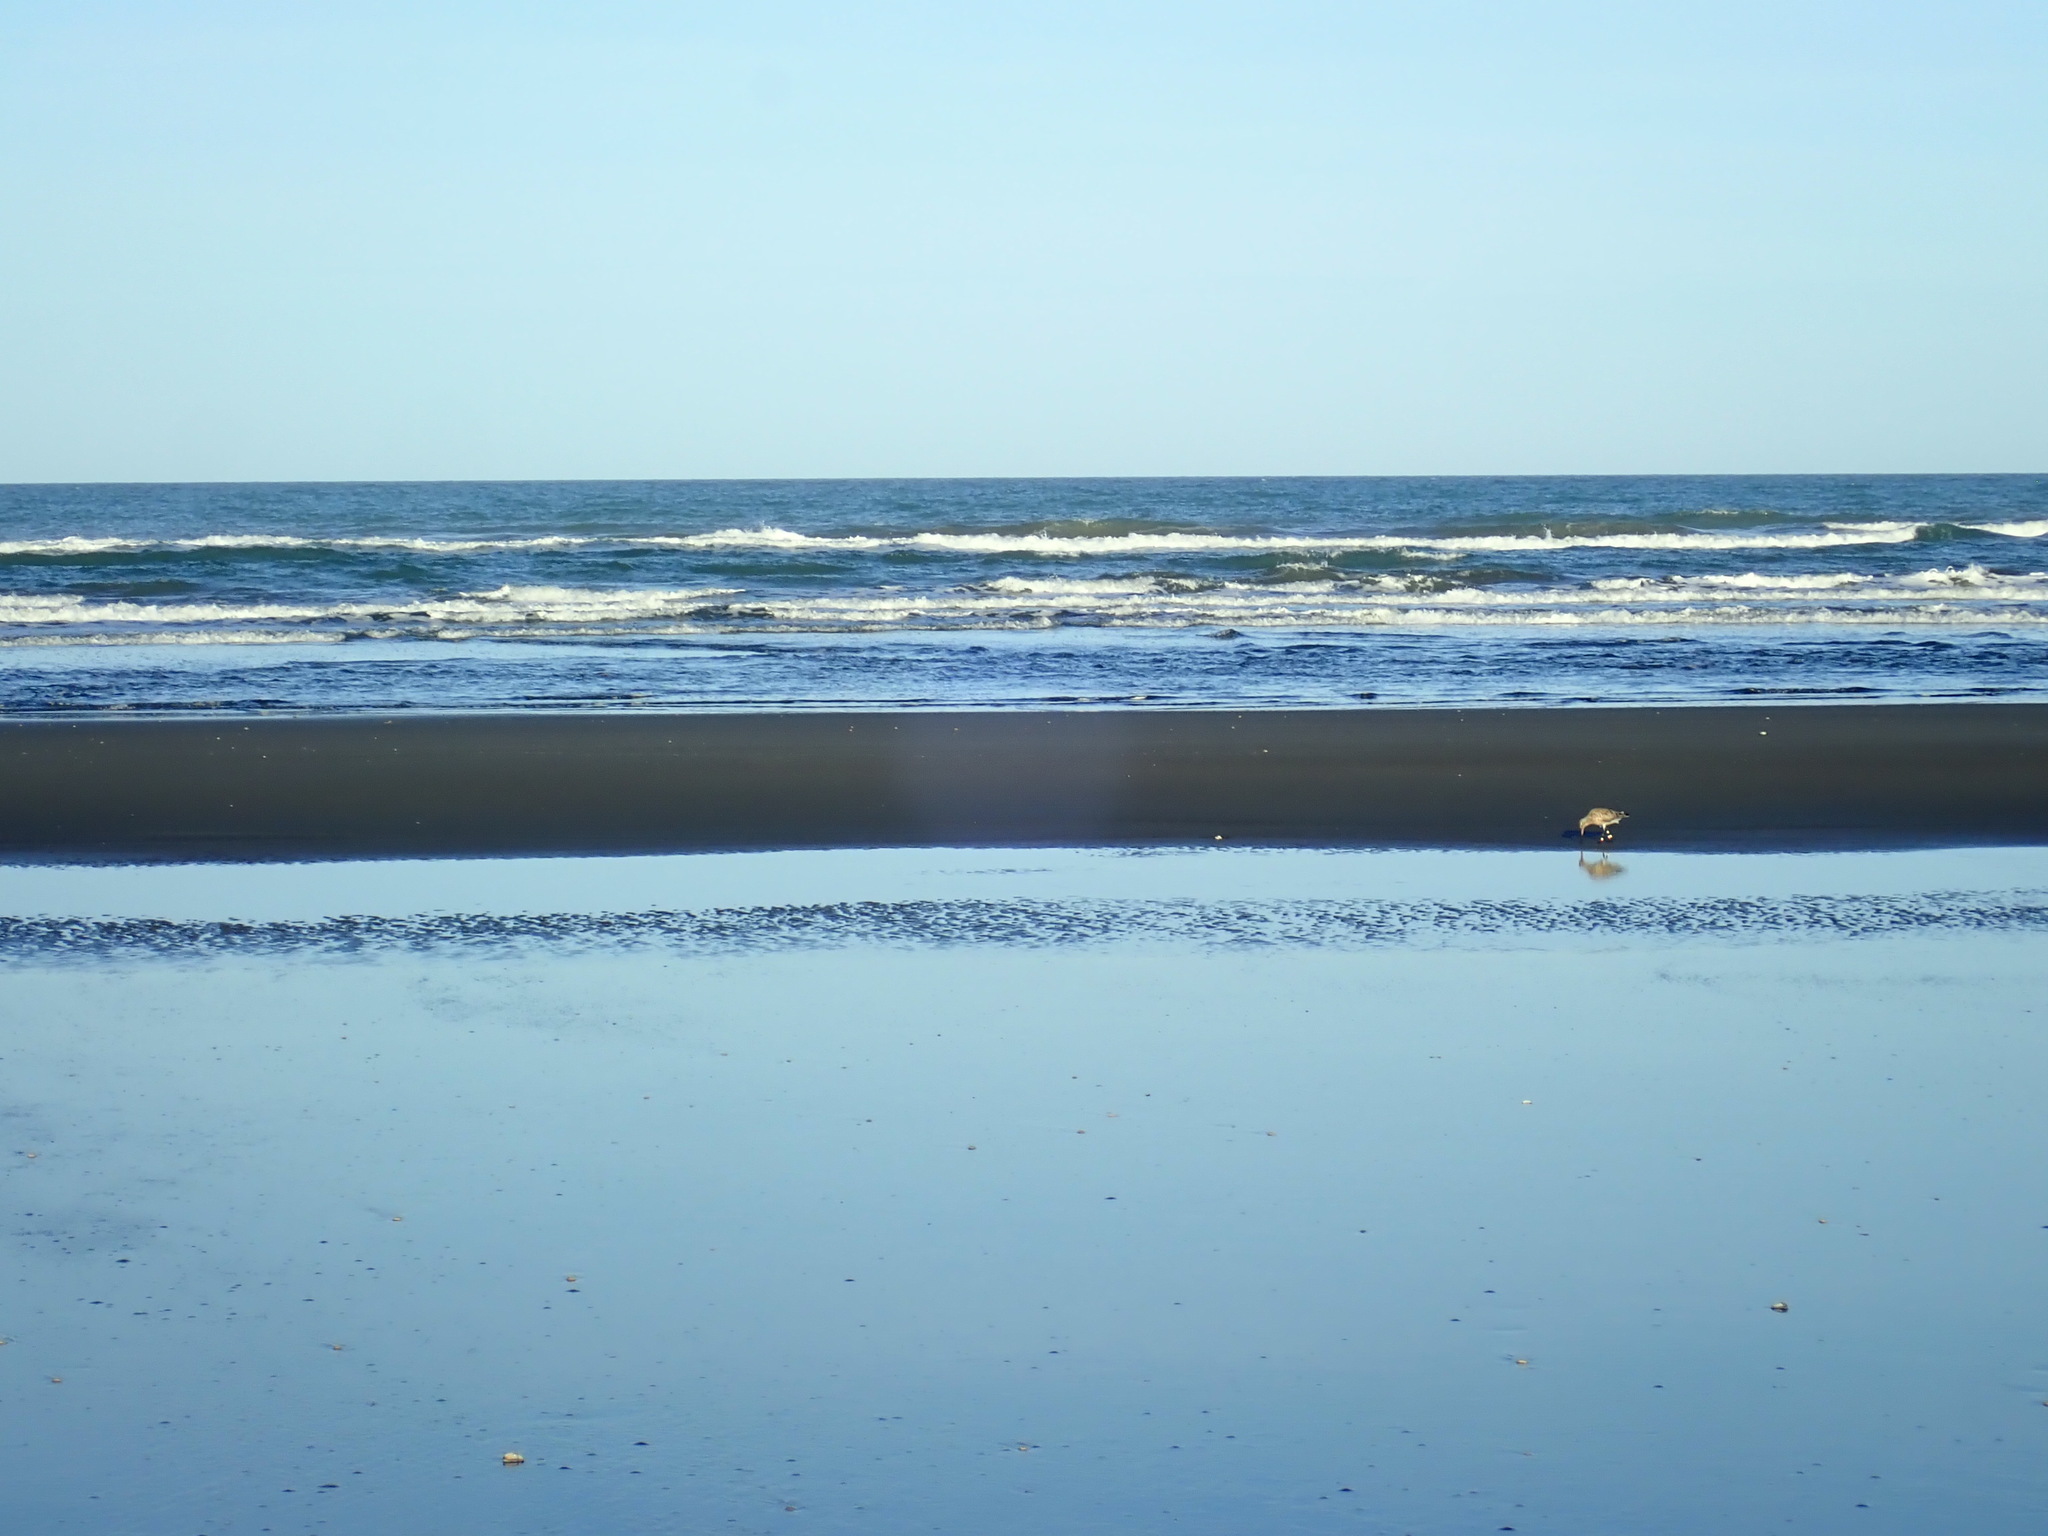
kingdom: Animalia
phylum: Chordata
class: Aves
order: Charadriiformes
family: Scolopacidae
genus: Limosa
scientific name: Limosa lapponica
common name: Bar-tailed godwit
